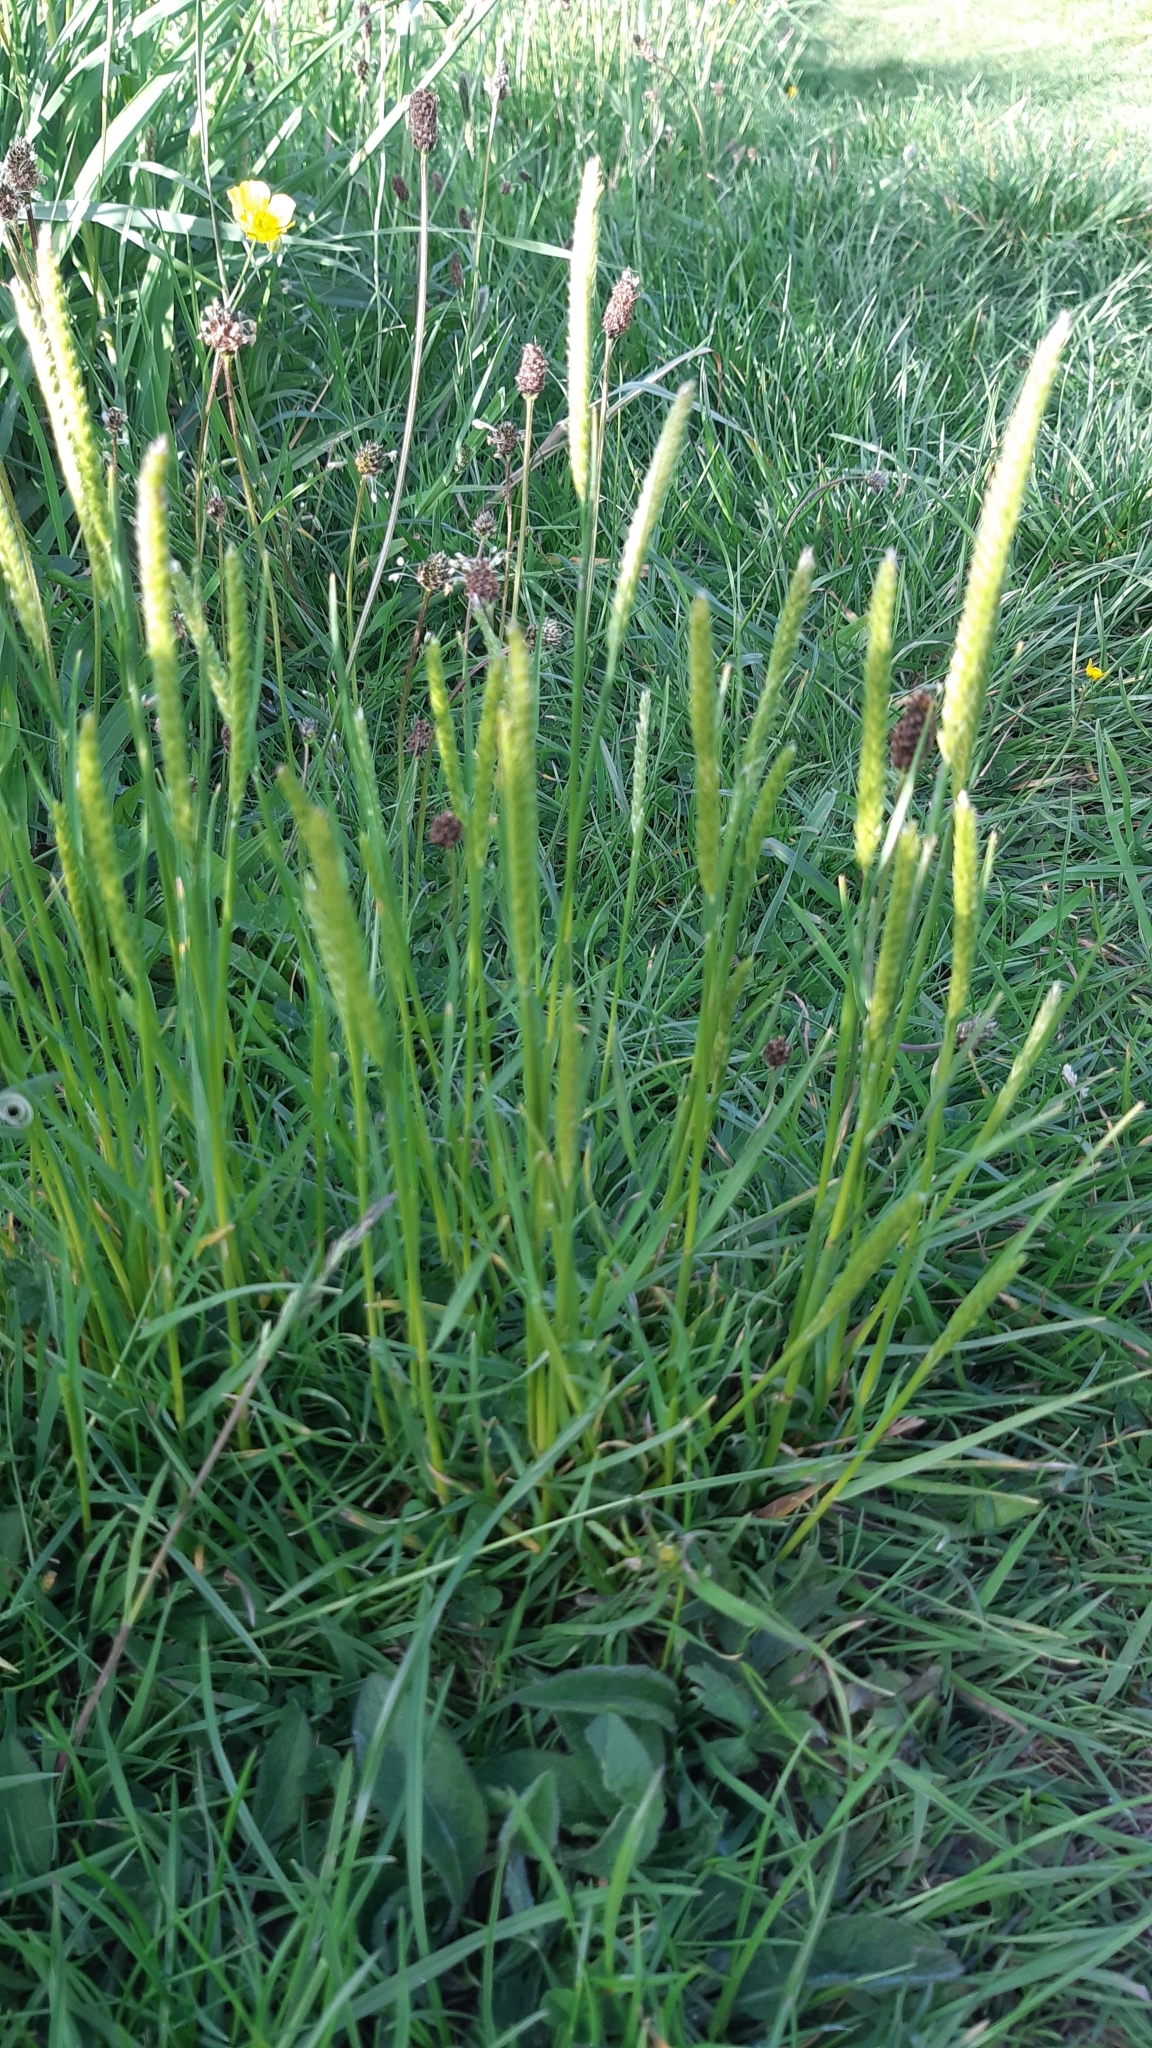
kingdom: Plantae
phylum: Tracheophyta
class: Liliopsida
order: Poales
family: Poaceae
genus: Cynosurus
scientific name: Cynosurus cristatus
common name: Crested dog's-tail
